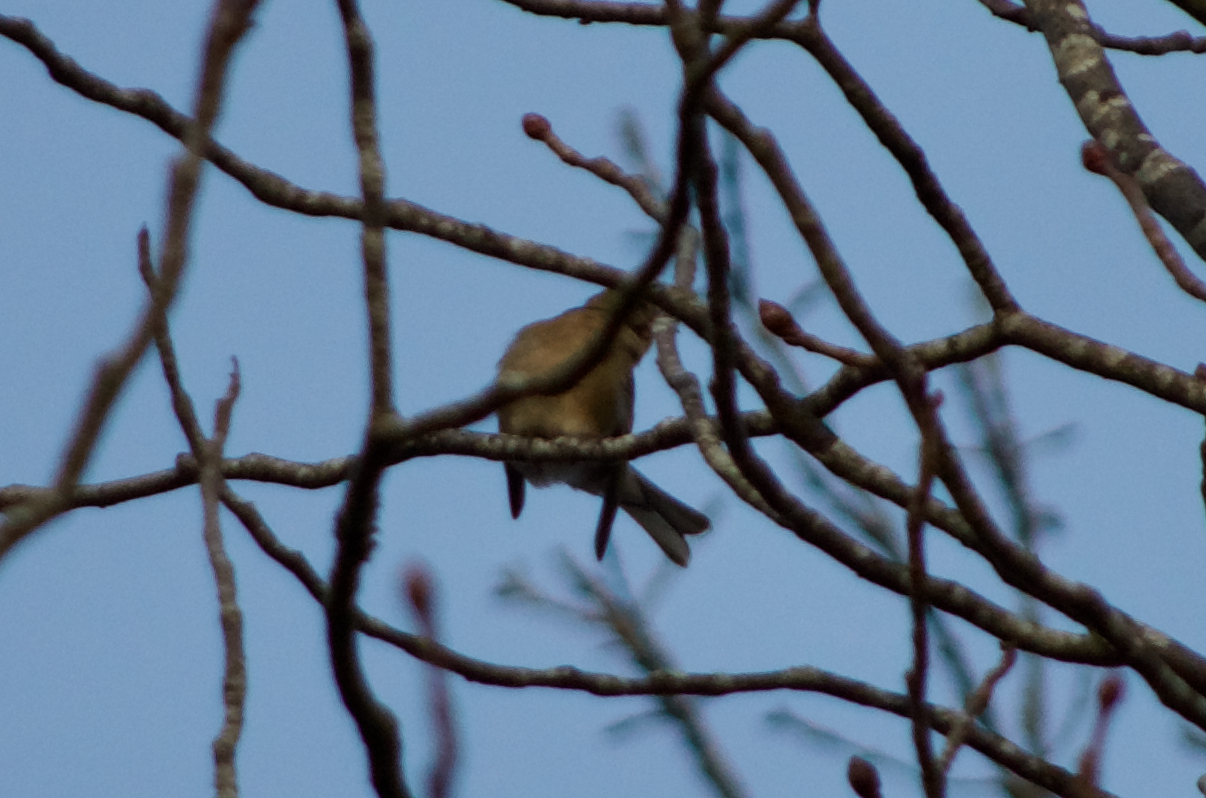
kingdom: Animalia
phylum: Chordata
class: Aves
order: Passeriformes
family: Fringillidae
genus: Fringilla
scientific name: Fringilla coelebs
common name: Common chaffinch
